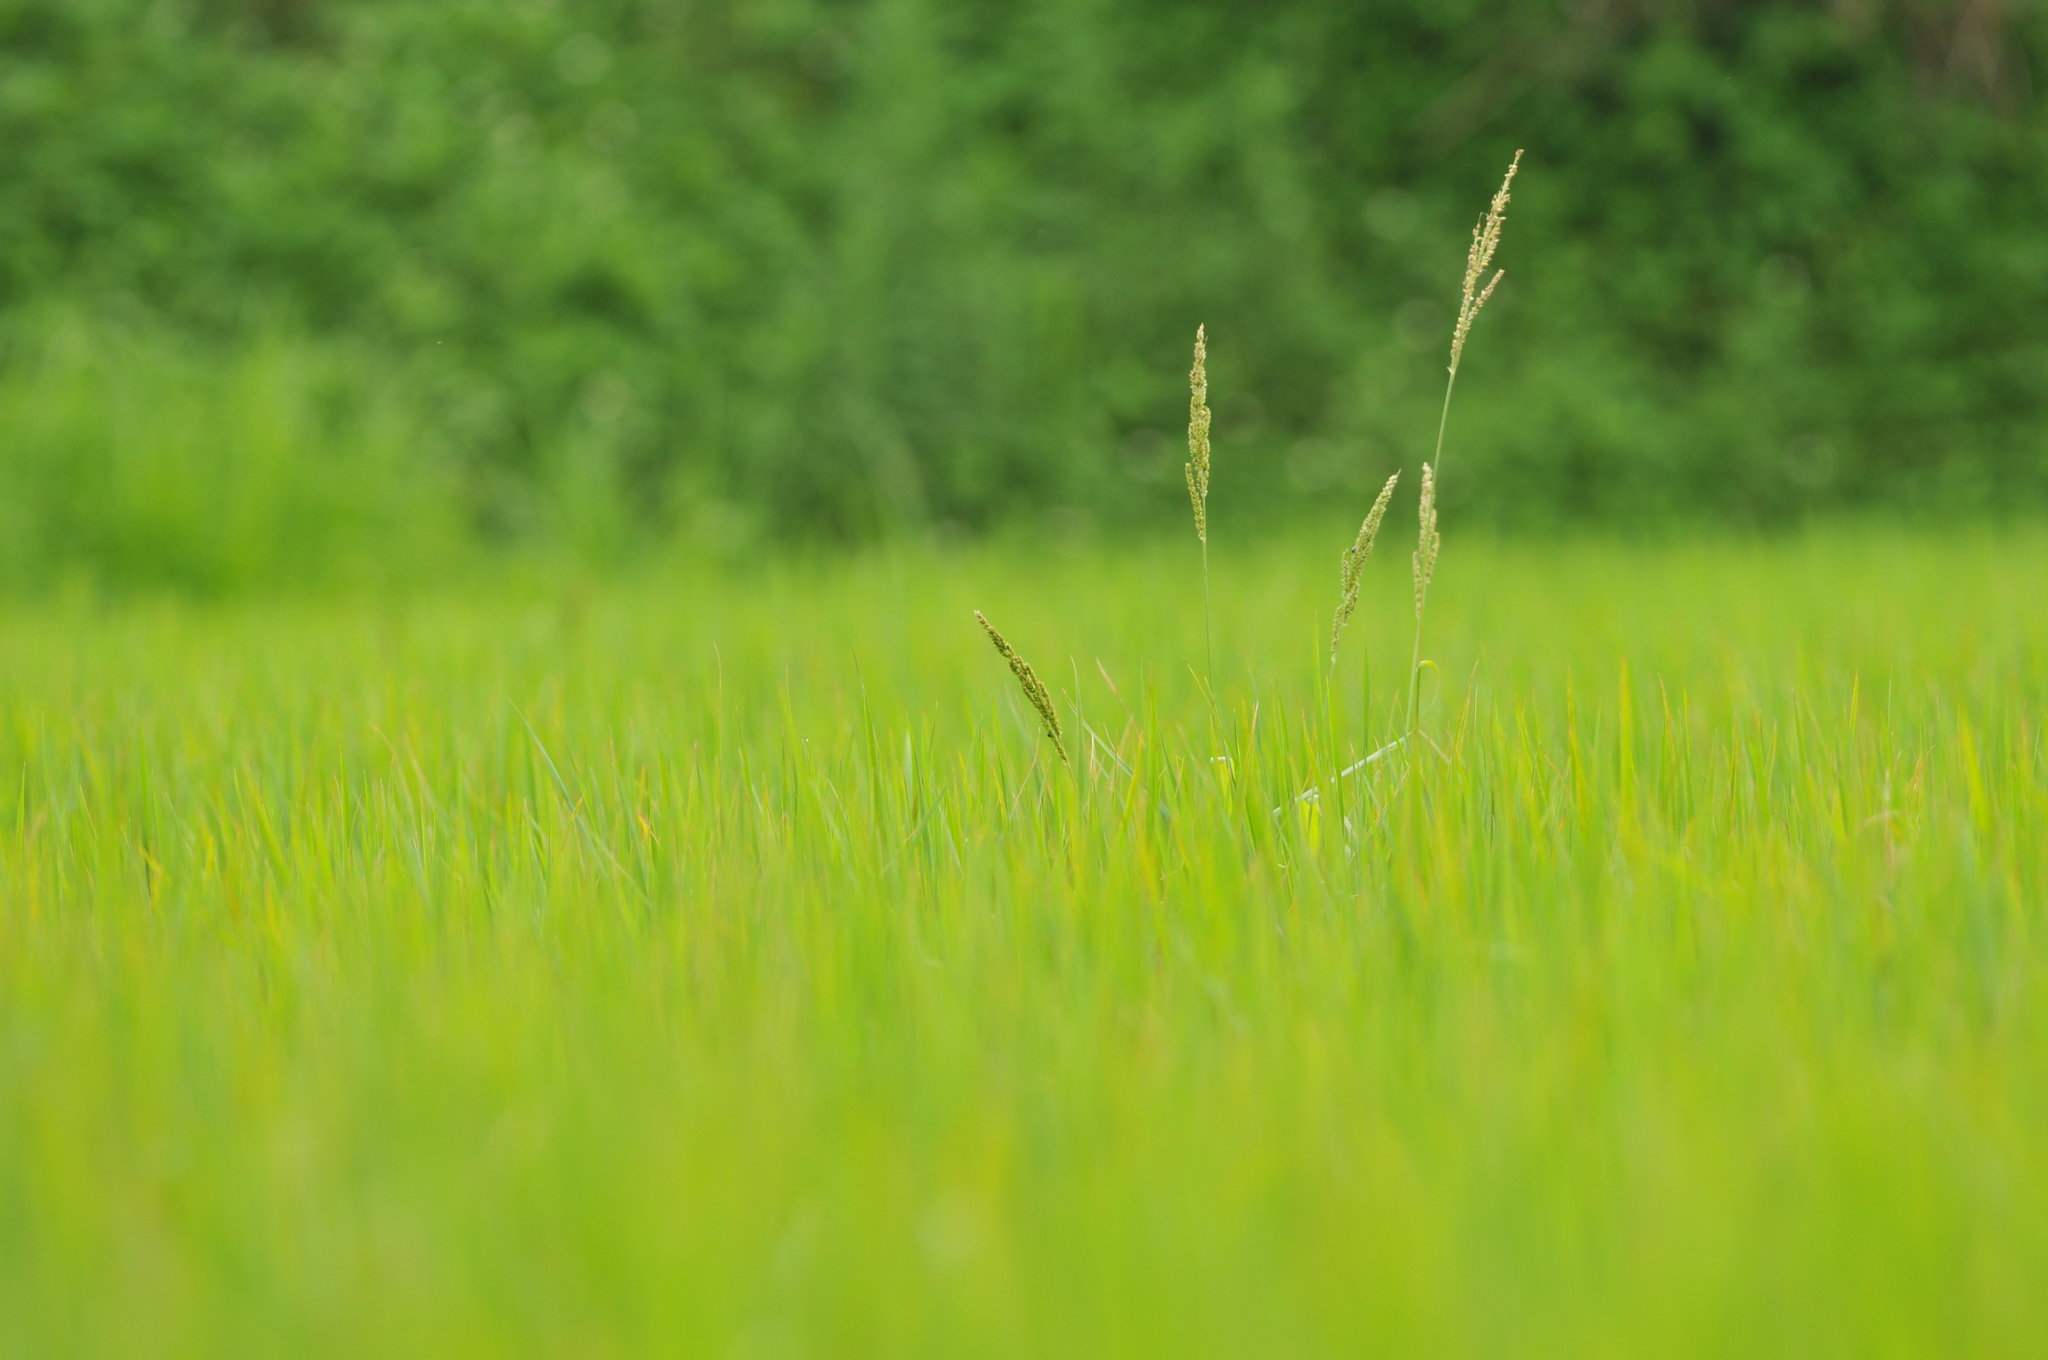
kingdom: Plantae
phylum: Tracheophyta
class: Liliopsida
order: Poales
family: Poaceae
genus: Echinochloa
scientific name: Echinochloa crus-galli
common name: Cockspur
